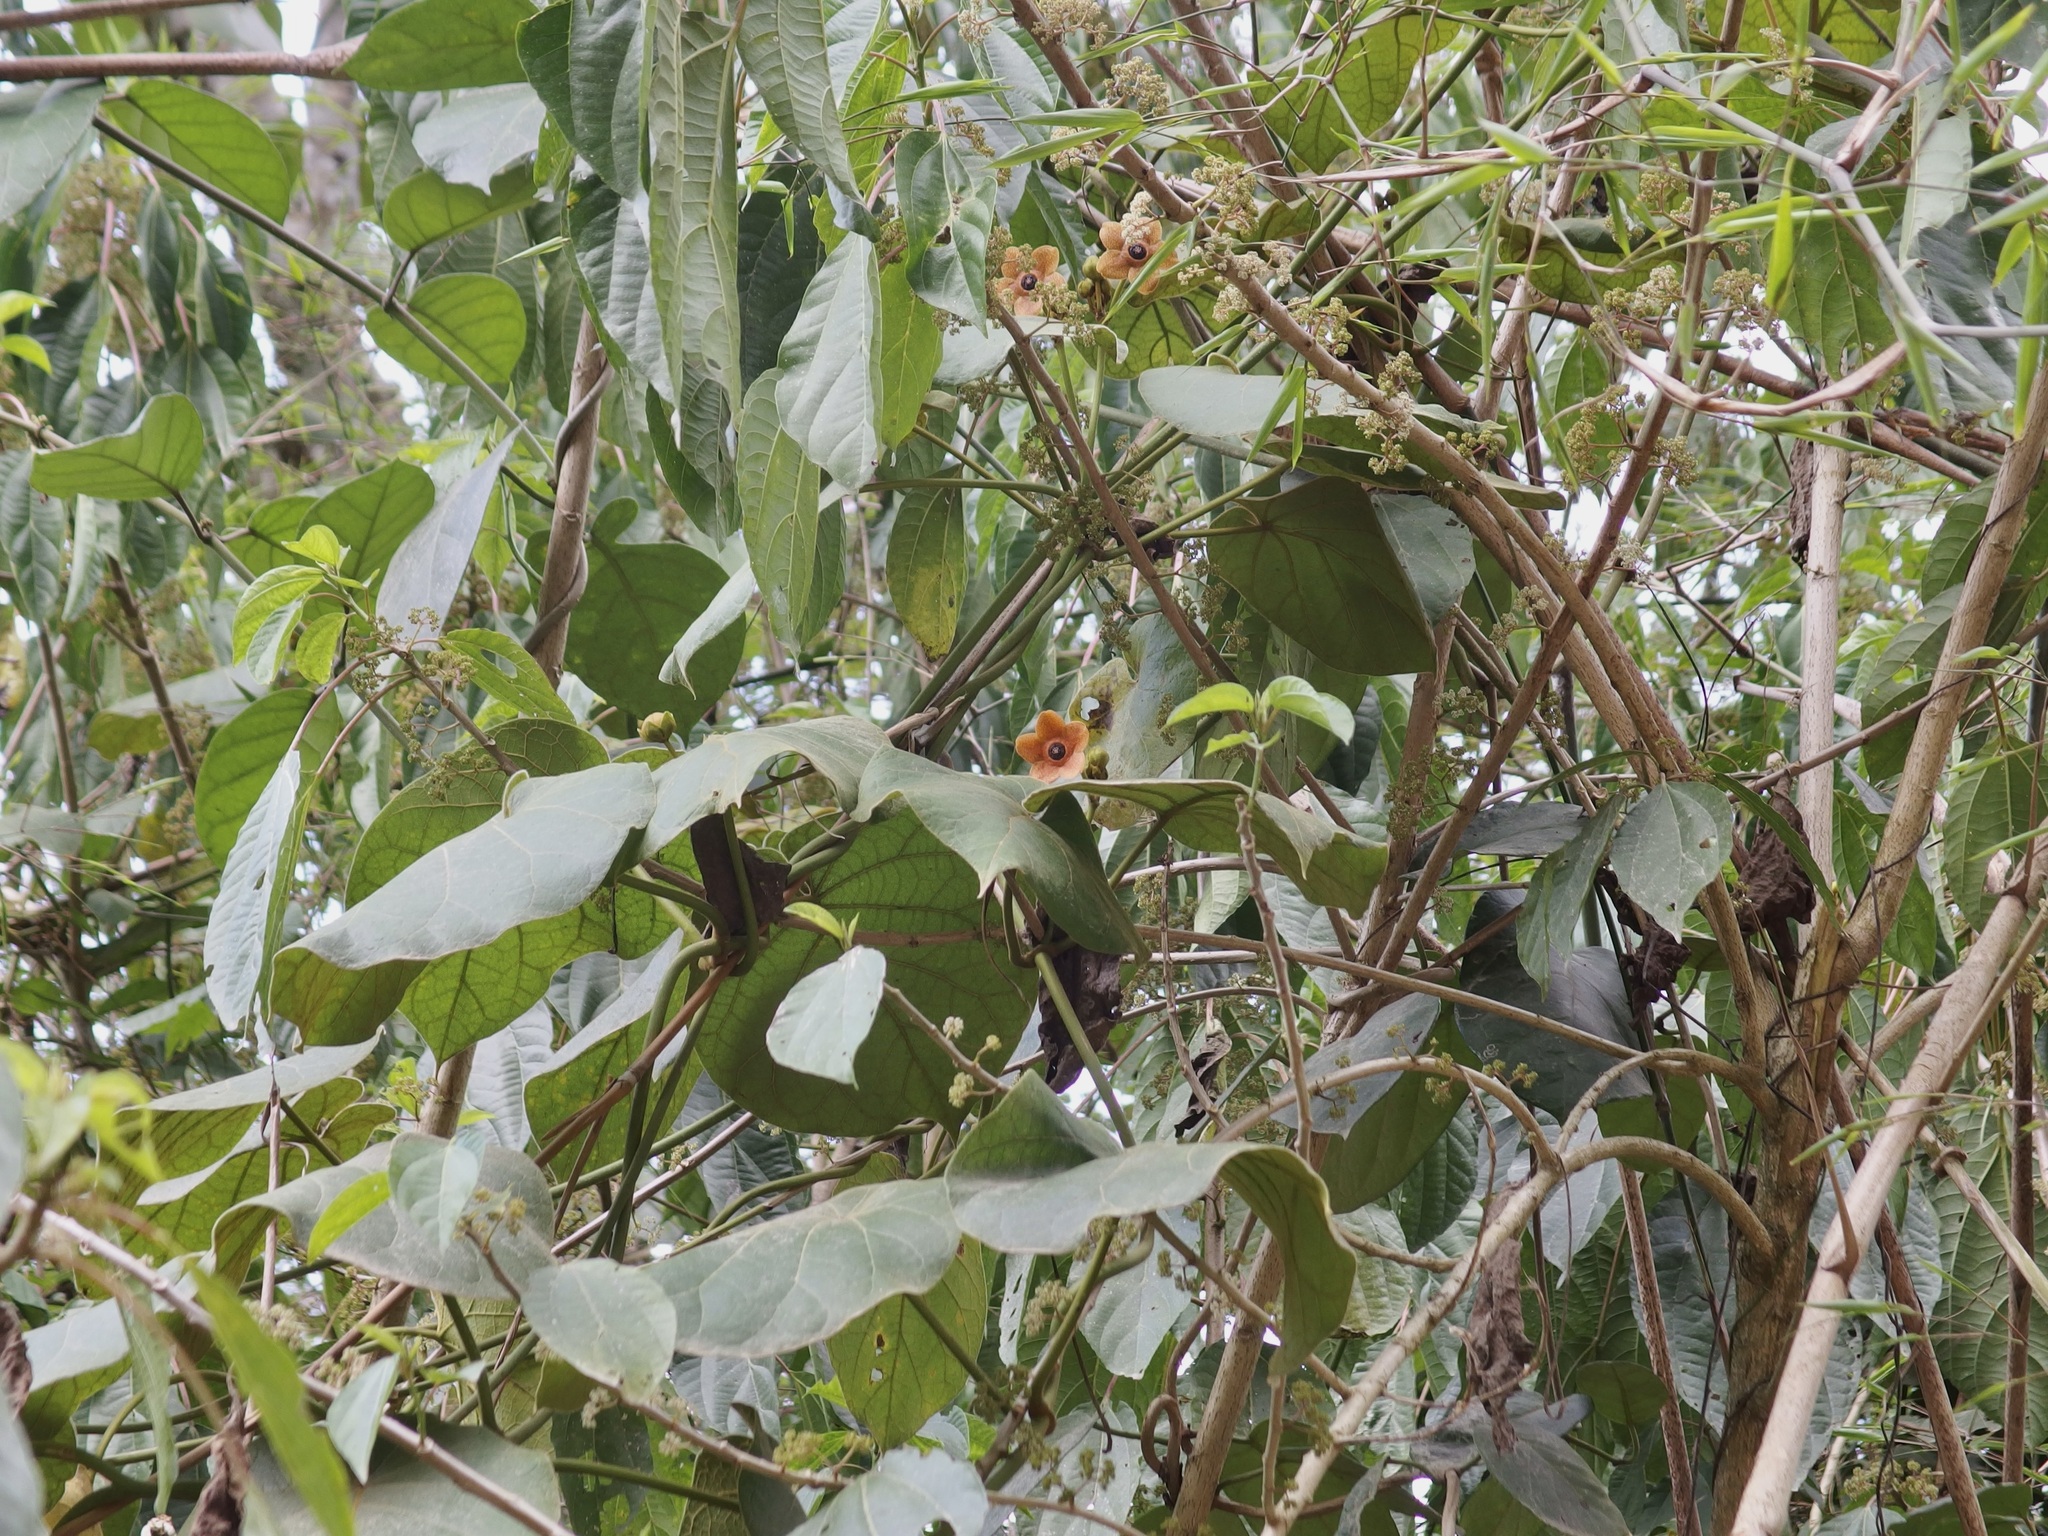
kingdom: Plantae
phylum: Tracheophyta
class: Magnoliopsida
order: Gentianales
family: Apocynaceae
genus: Bruceholstia
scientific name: Bruceholstia sidifolia
